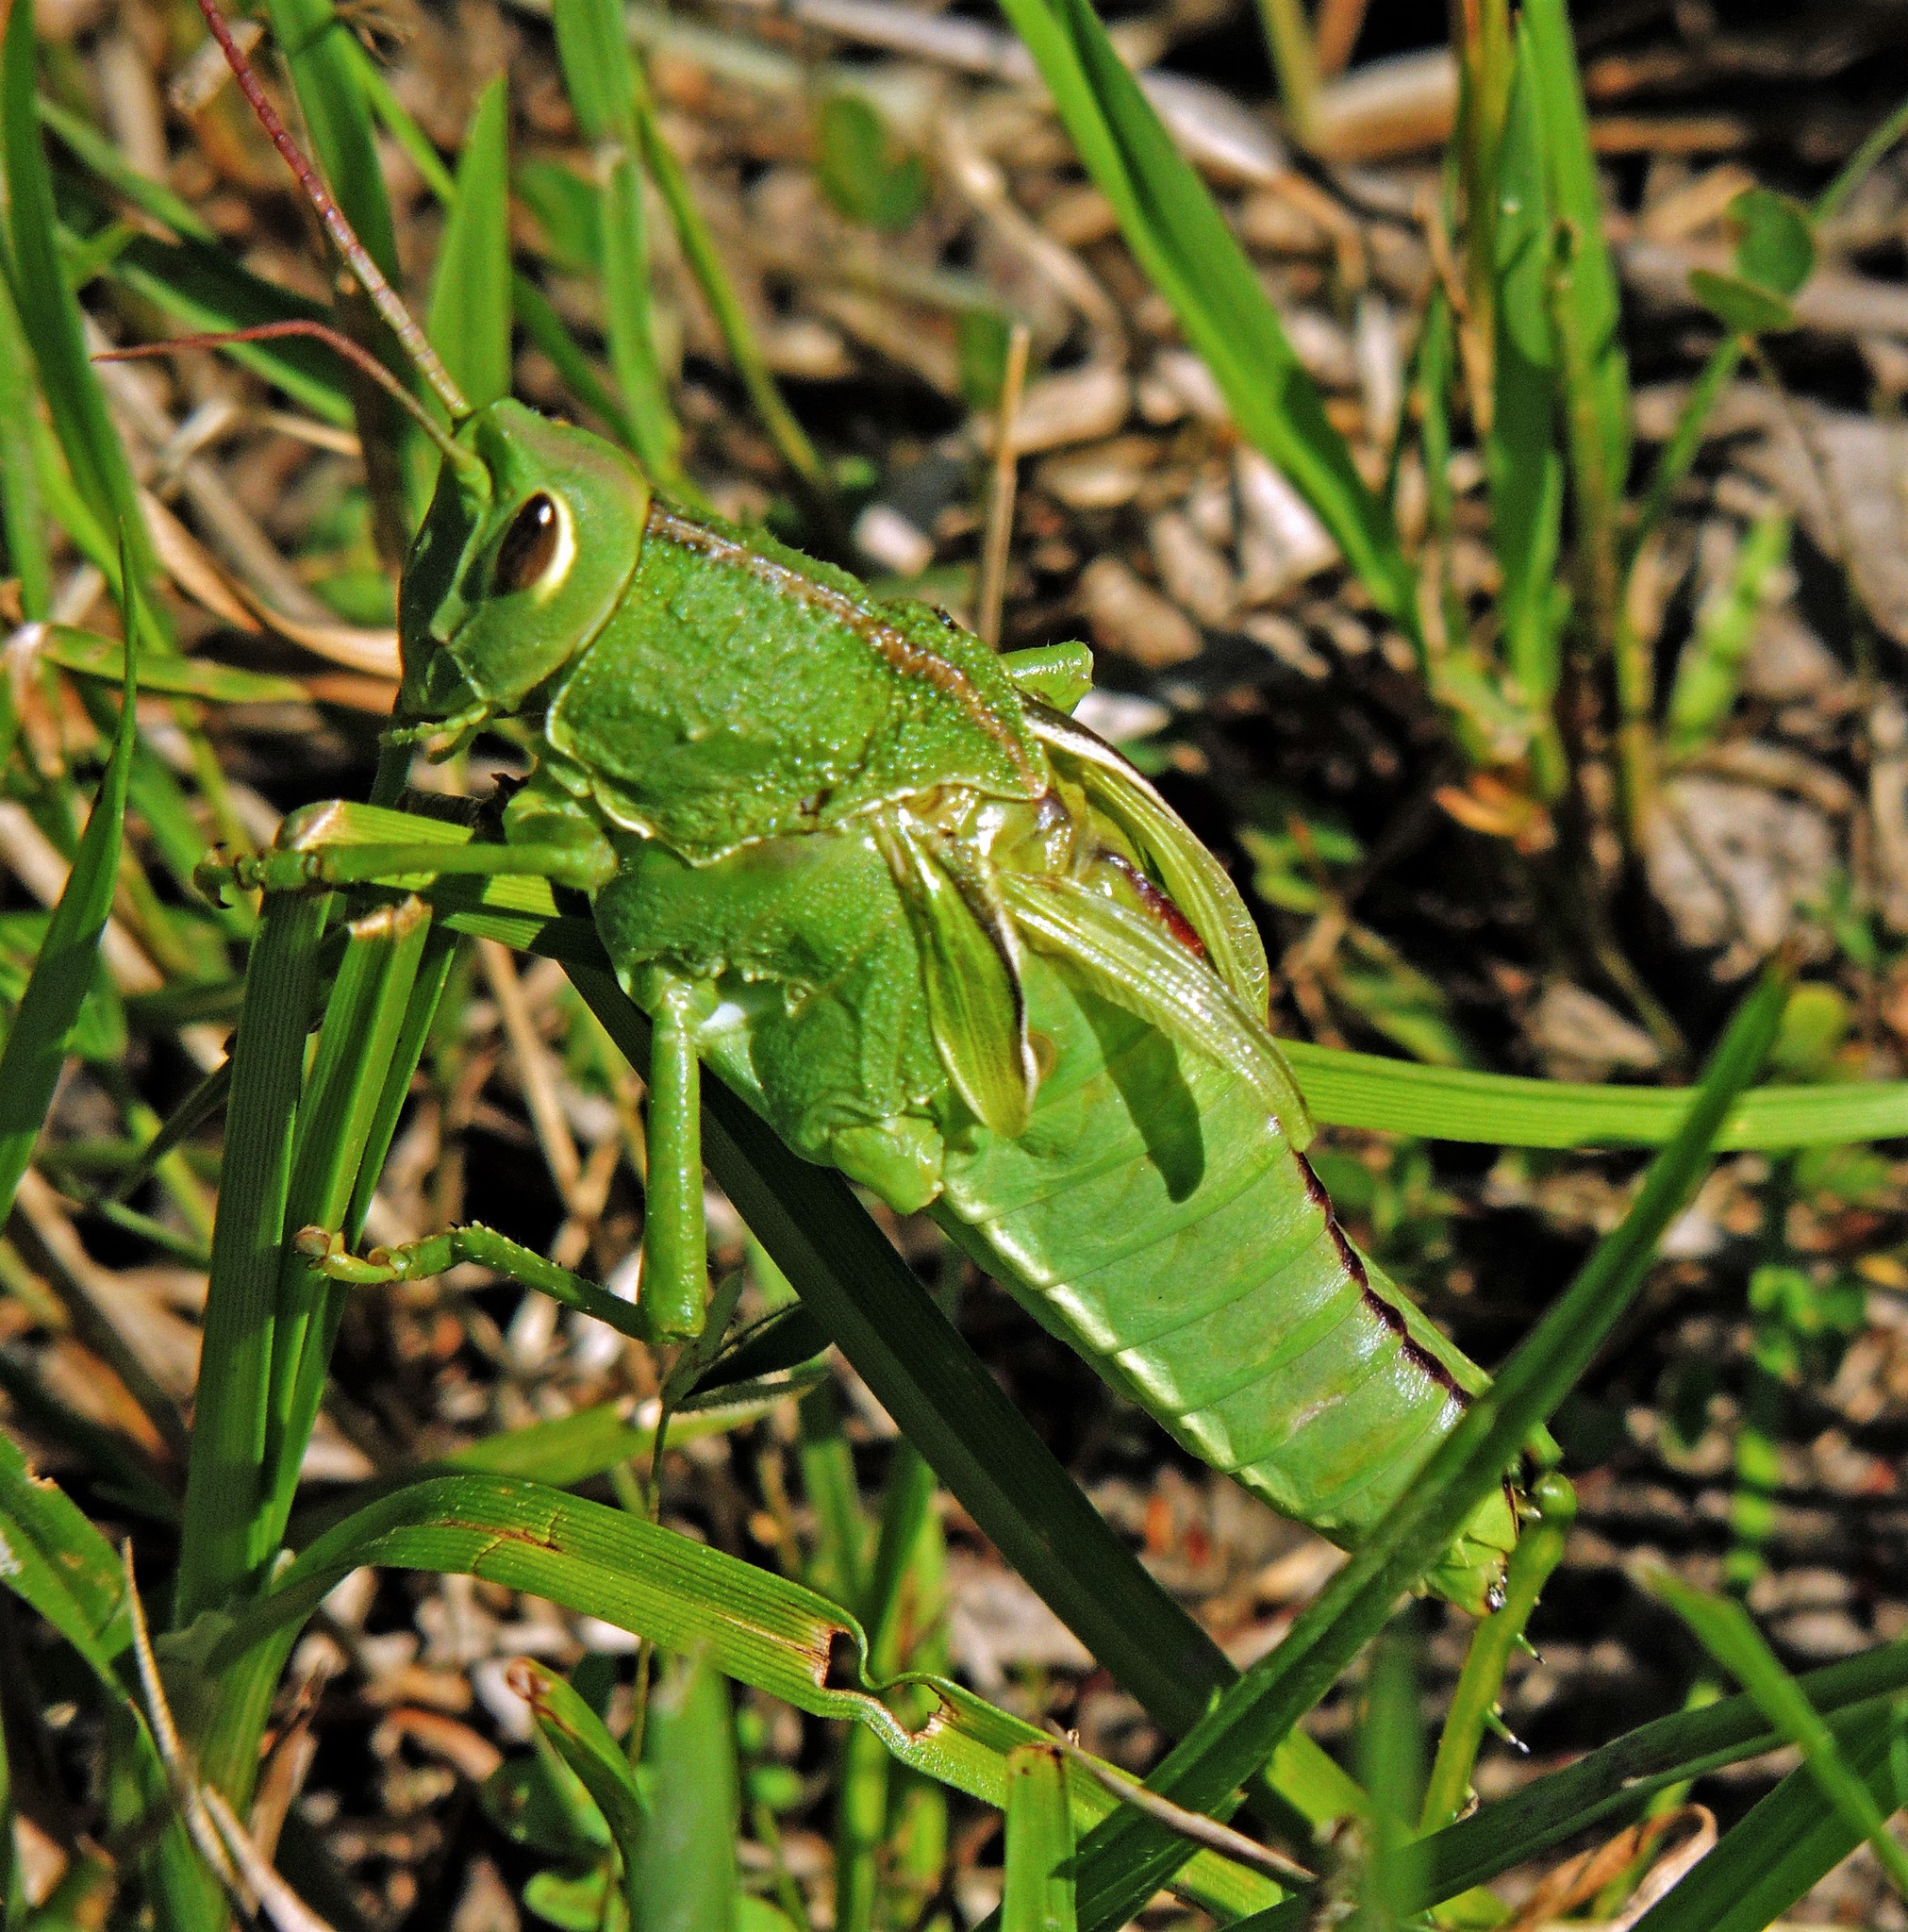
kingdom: Animalia
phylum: Arthropoda
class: Insecta
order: Orthoptera
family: Romaleidae
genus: Staleochlora
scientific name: Staleochlora viridicata
